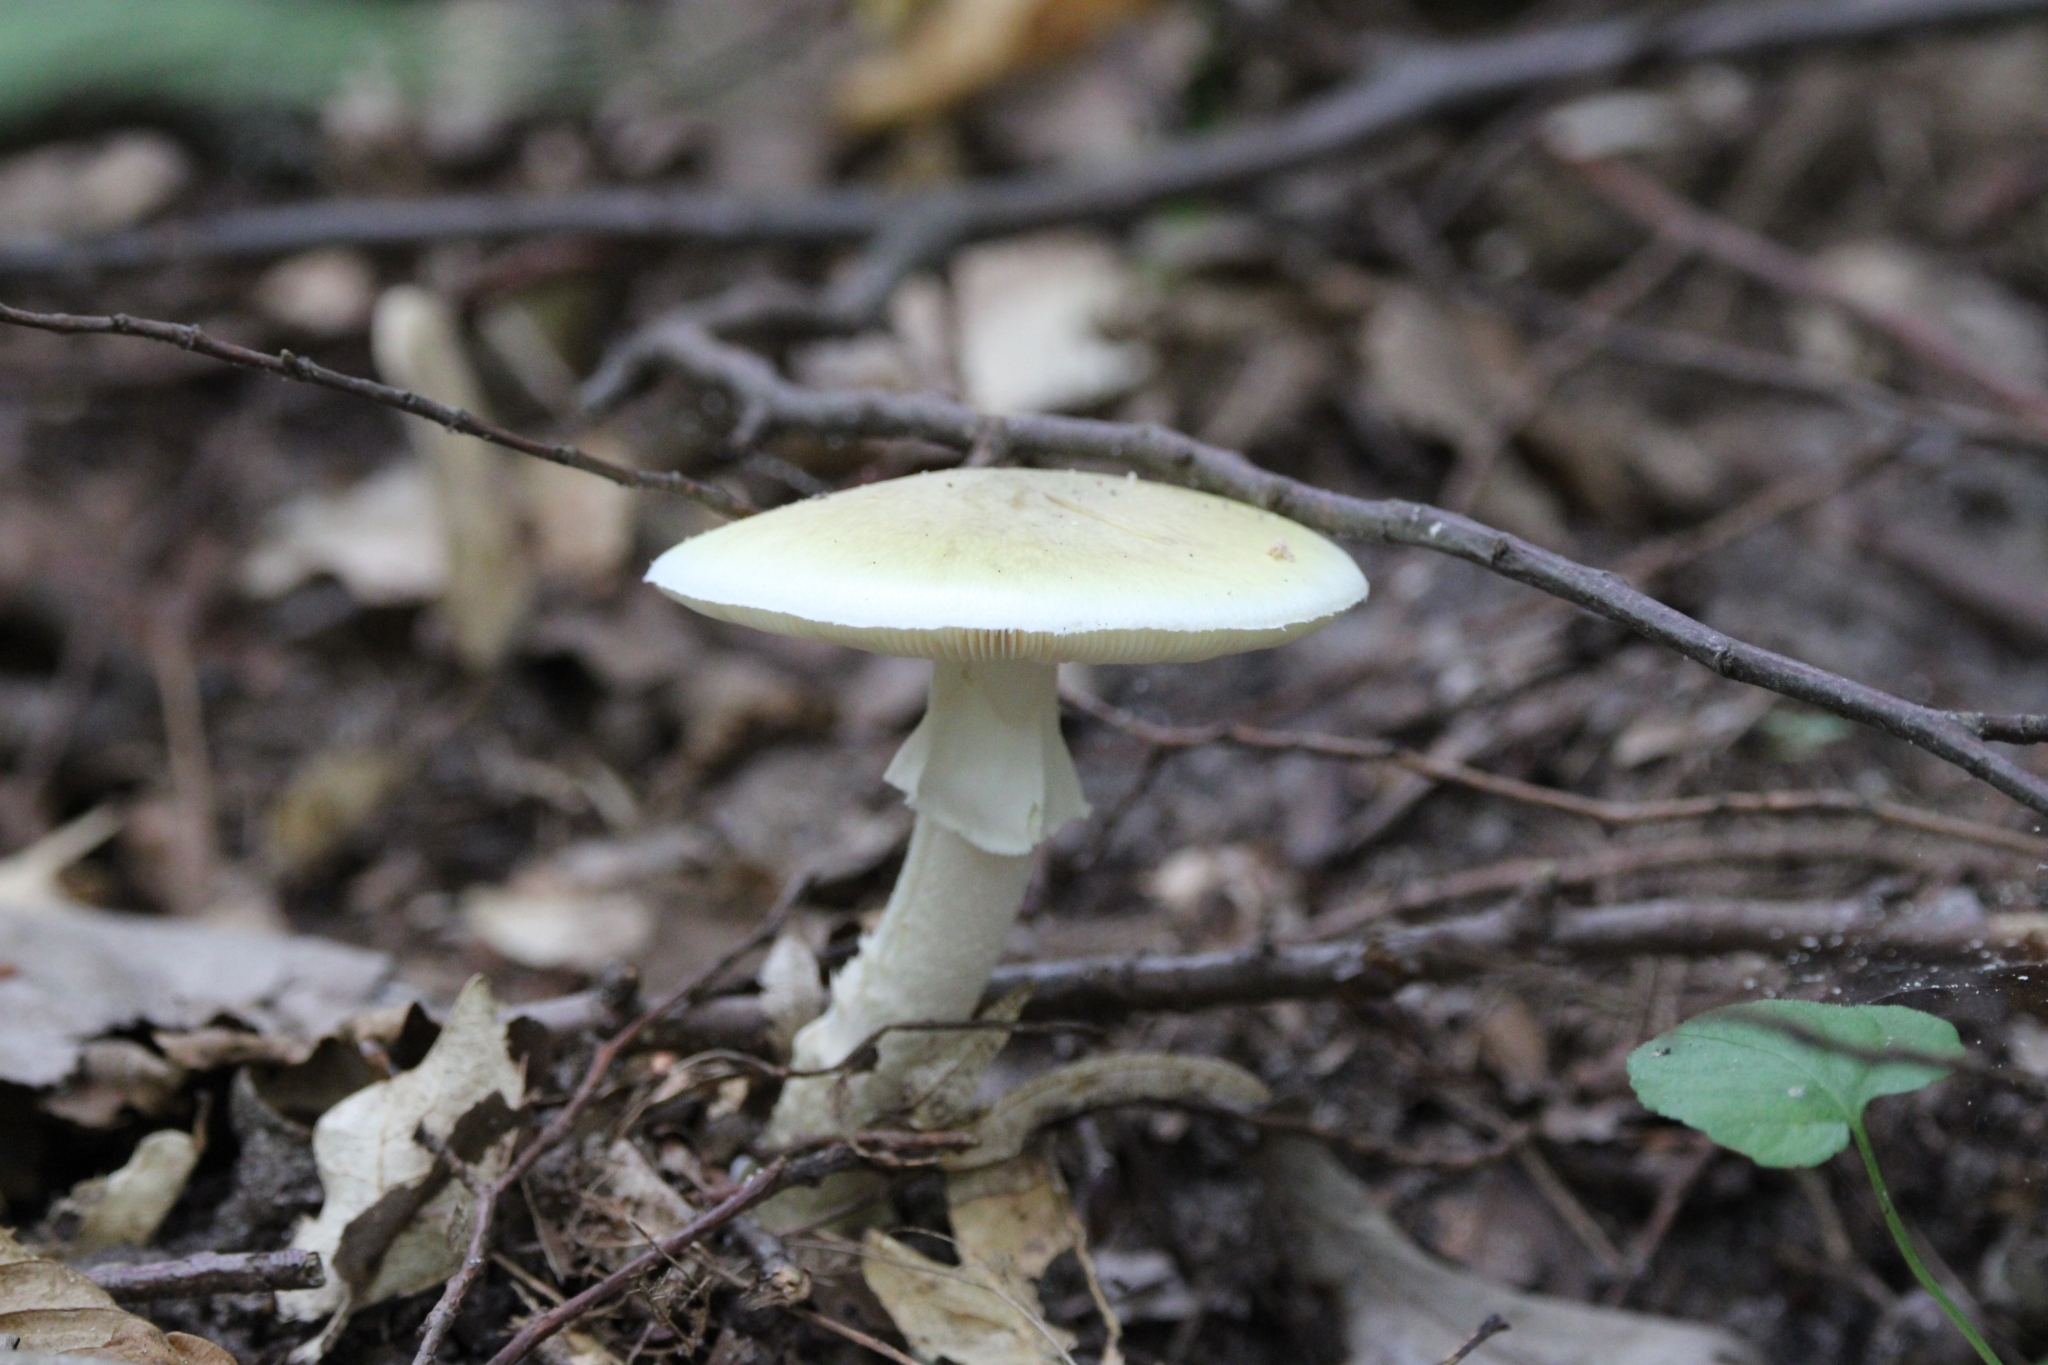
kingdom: Fungi
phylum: Basidiomycota
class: Agaricomycetes
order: Agaricales
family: Amanitaceae
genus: Amanita
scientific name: Amanita phalloides
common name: Death cap
